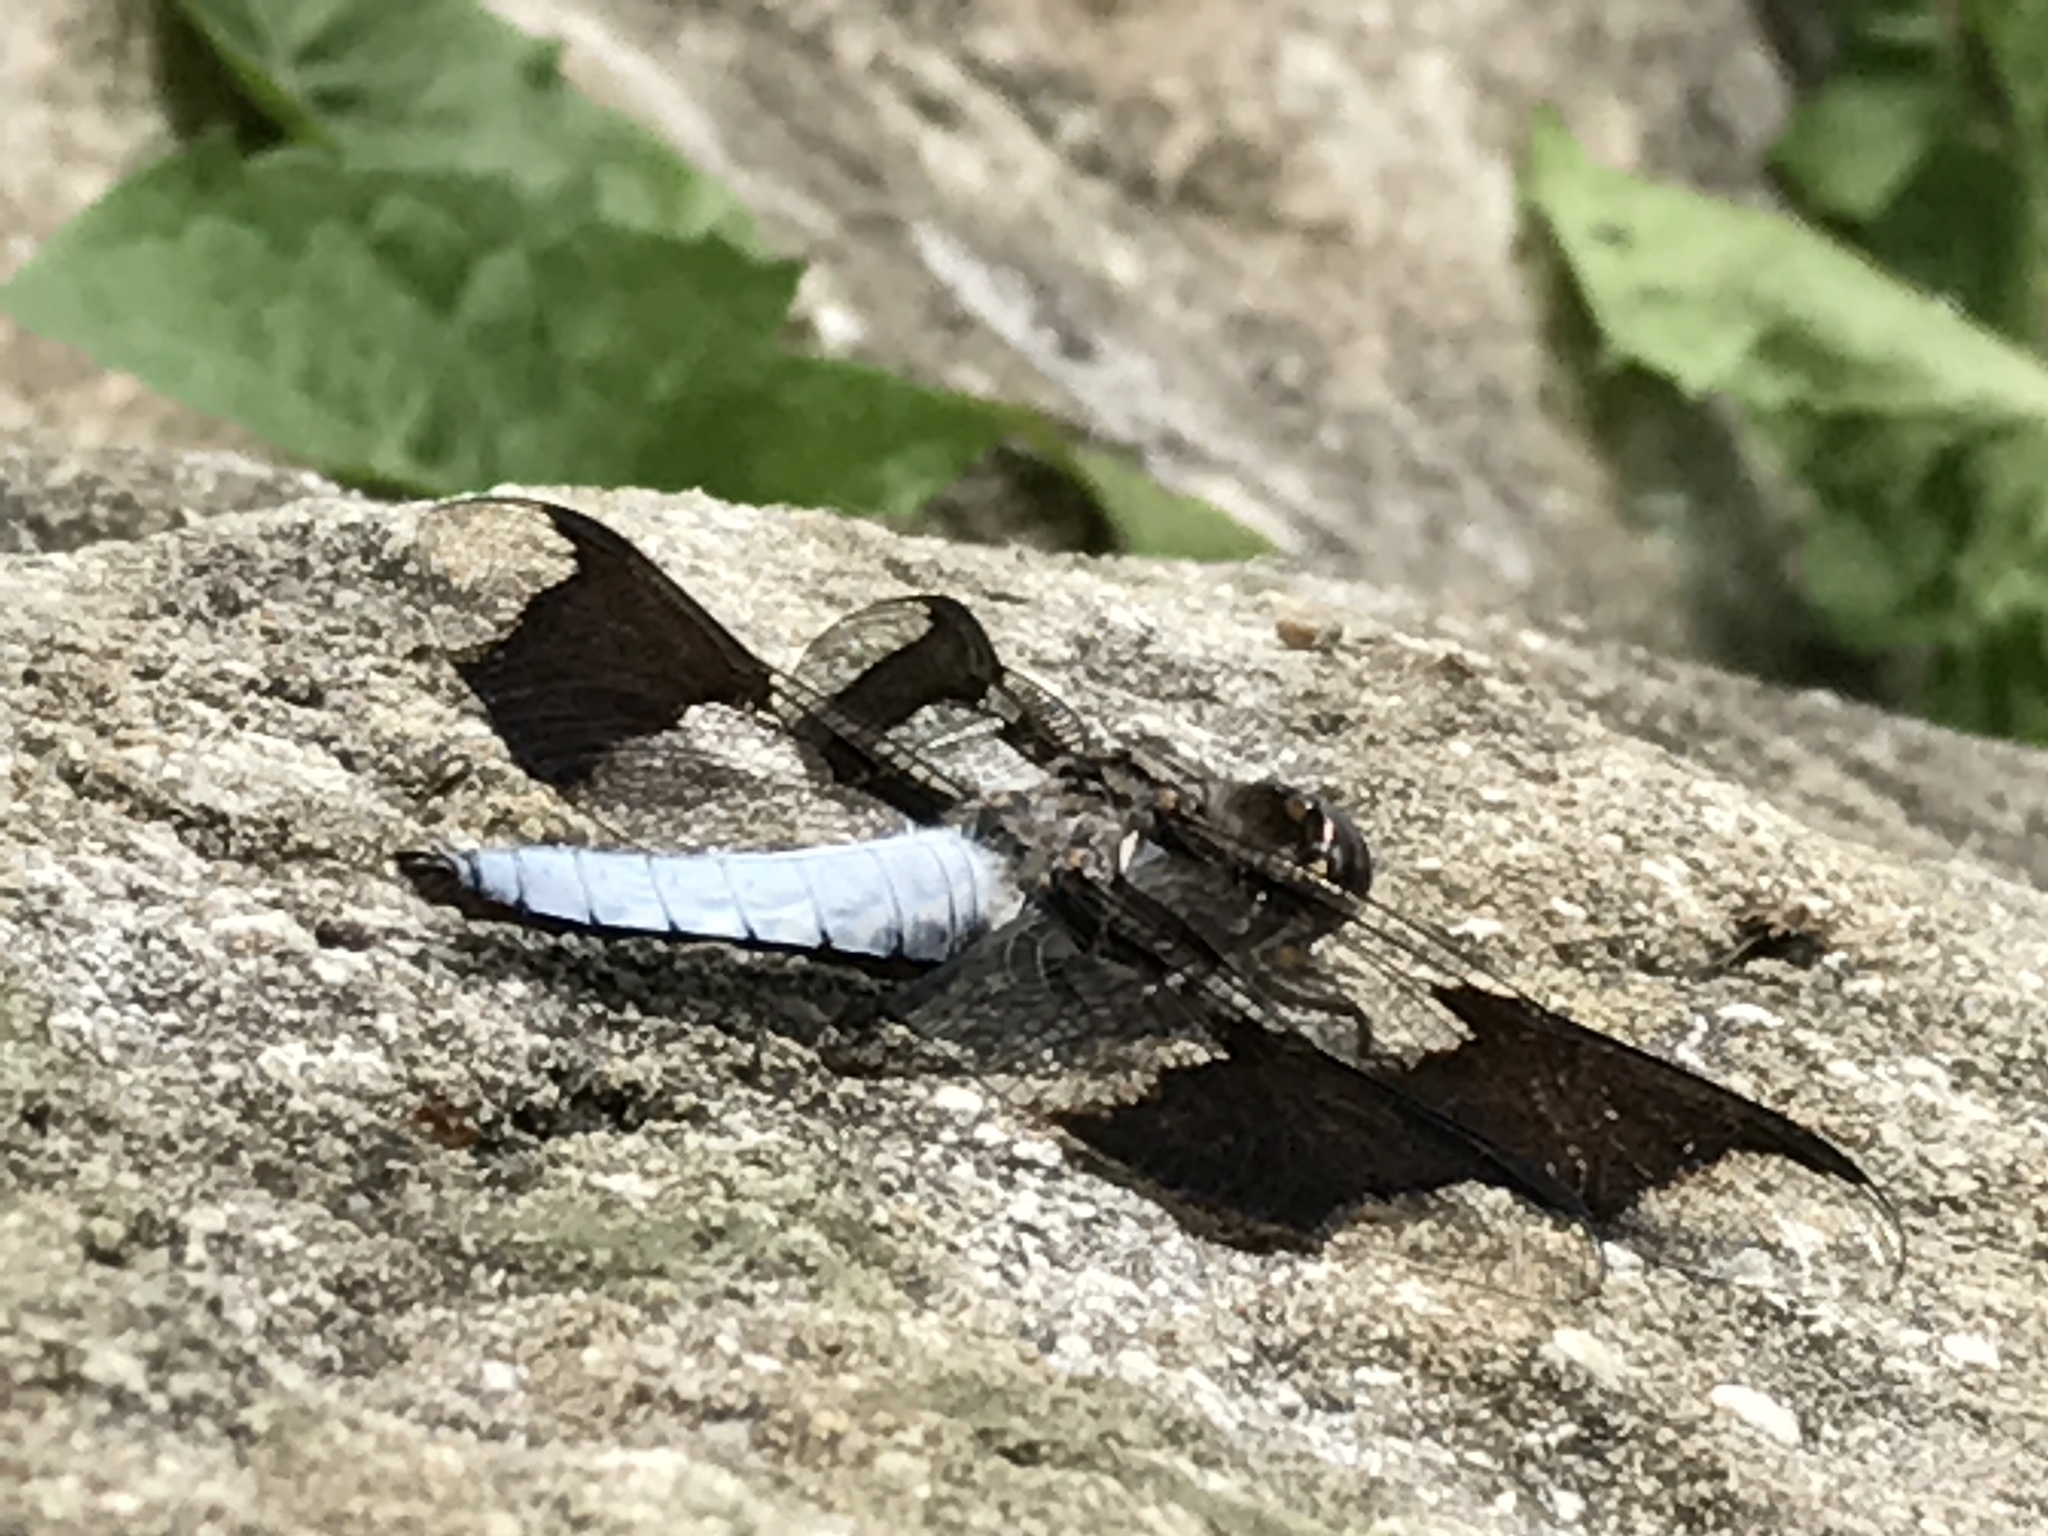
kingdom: Animalia
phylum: Arthropoda
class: Insecta
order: Odonata
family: Libellulidae
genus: Plathemis
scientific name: Plathemis lydia
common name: Common whitetail
